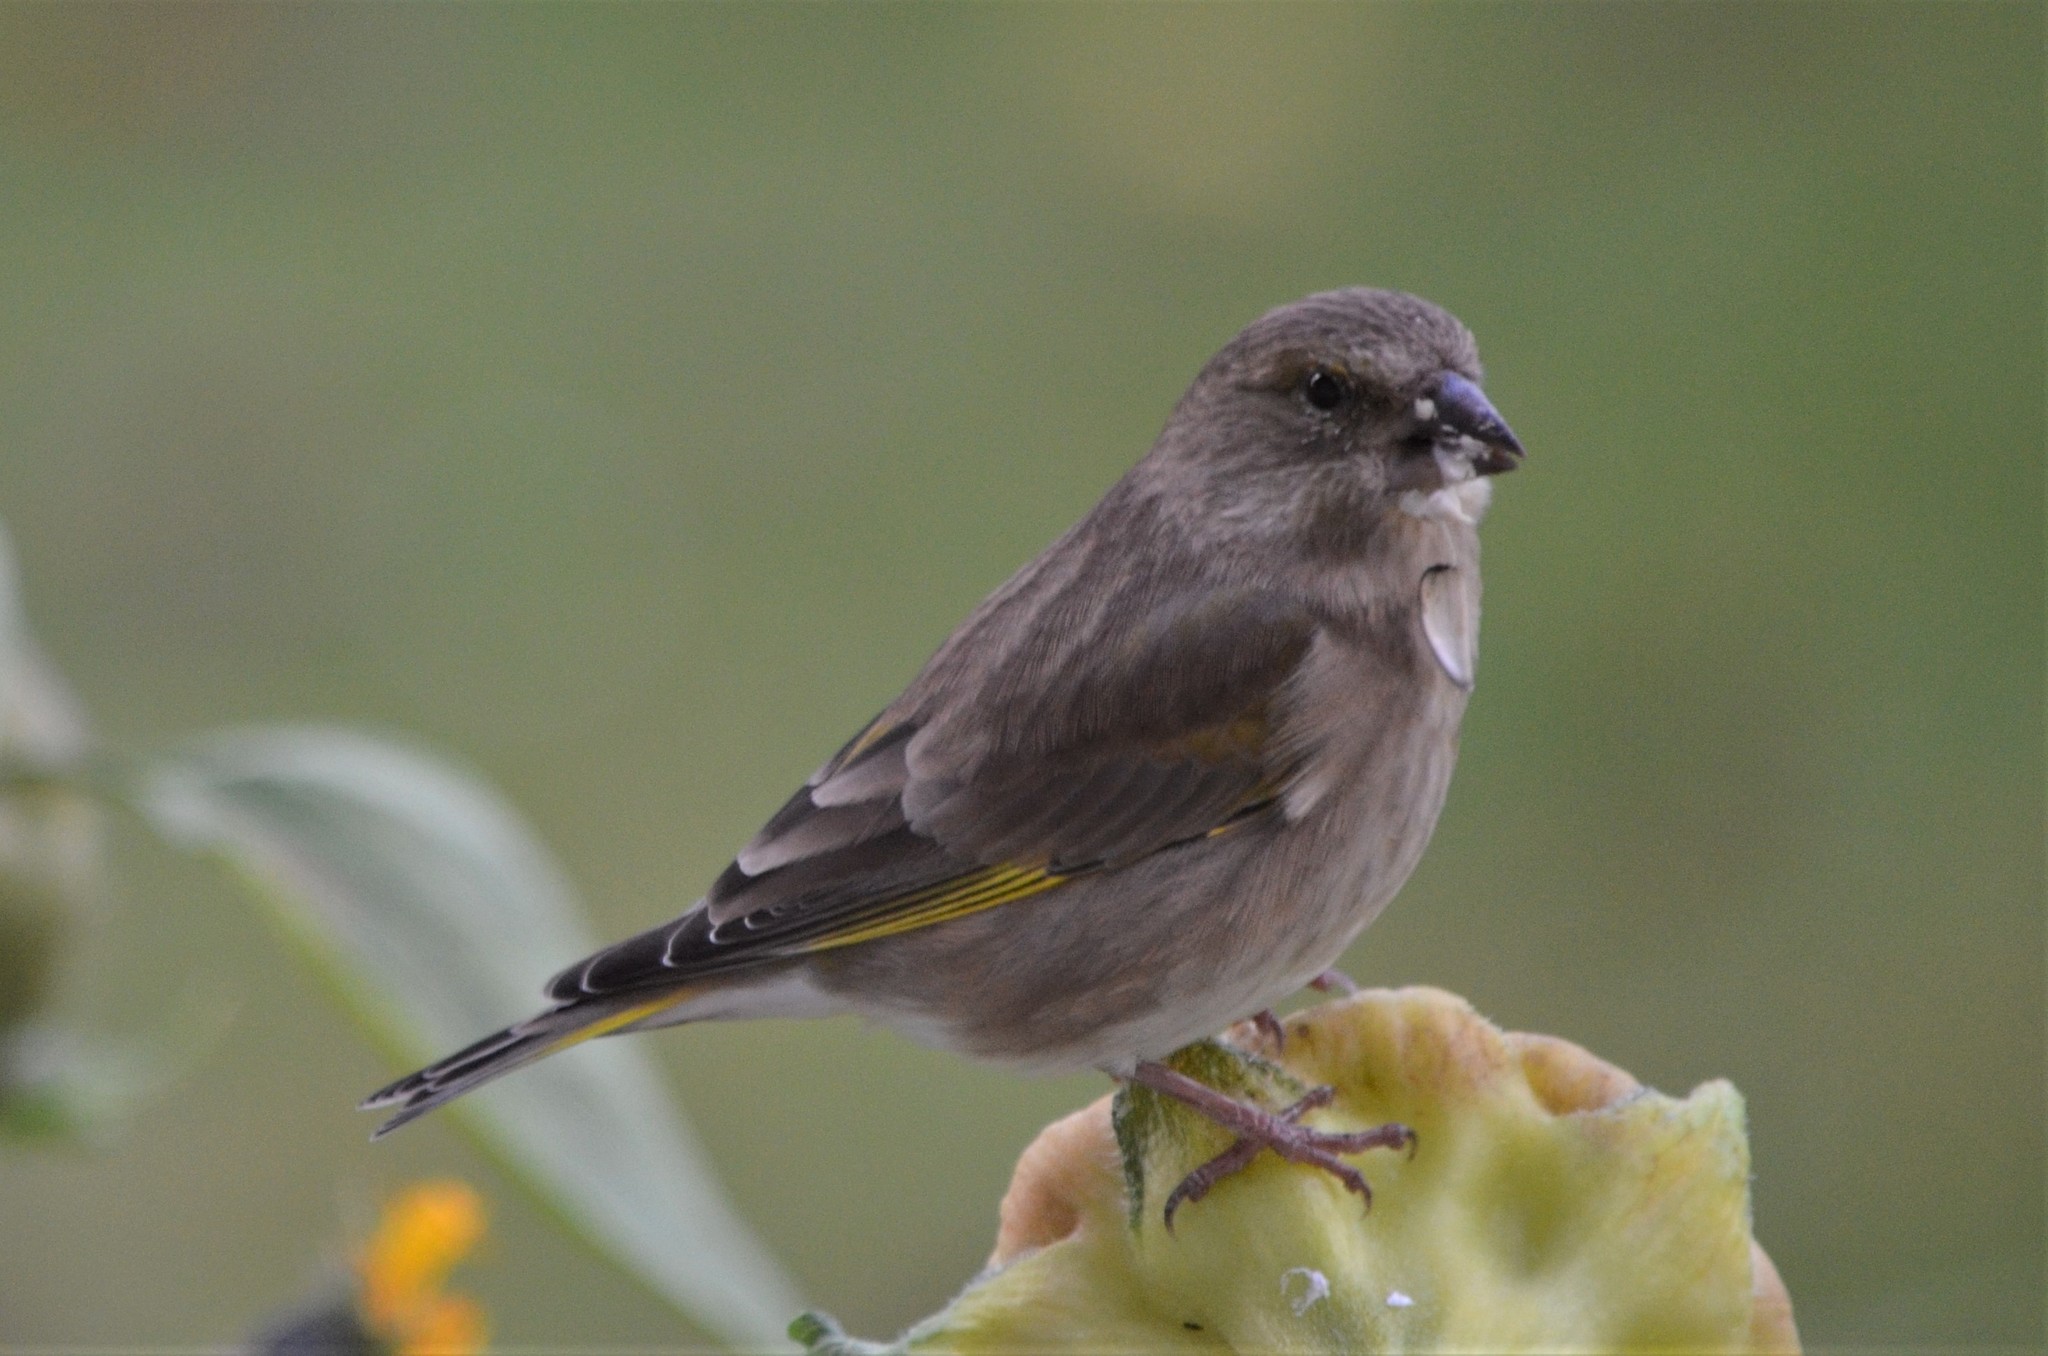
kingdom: Plantae
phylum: Tracheophyta
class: Liliopsida
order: Poales
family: Poaceae
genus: Chloris
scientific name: Chloris chloris
